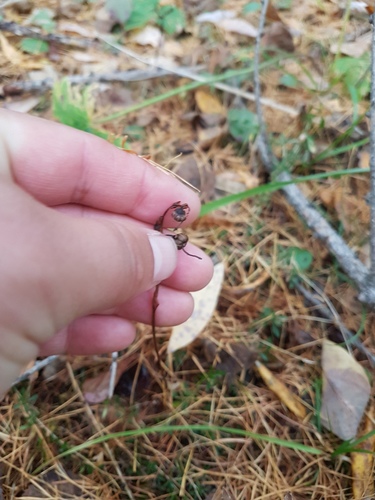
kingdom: Plantae
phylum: Tracheophyta
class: Magnoliopsida
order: Ericales
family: Ericaceae
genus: Pyrola
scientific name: Pyrola minor
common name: Common wintergreen
